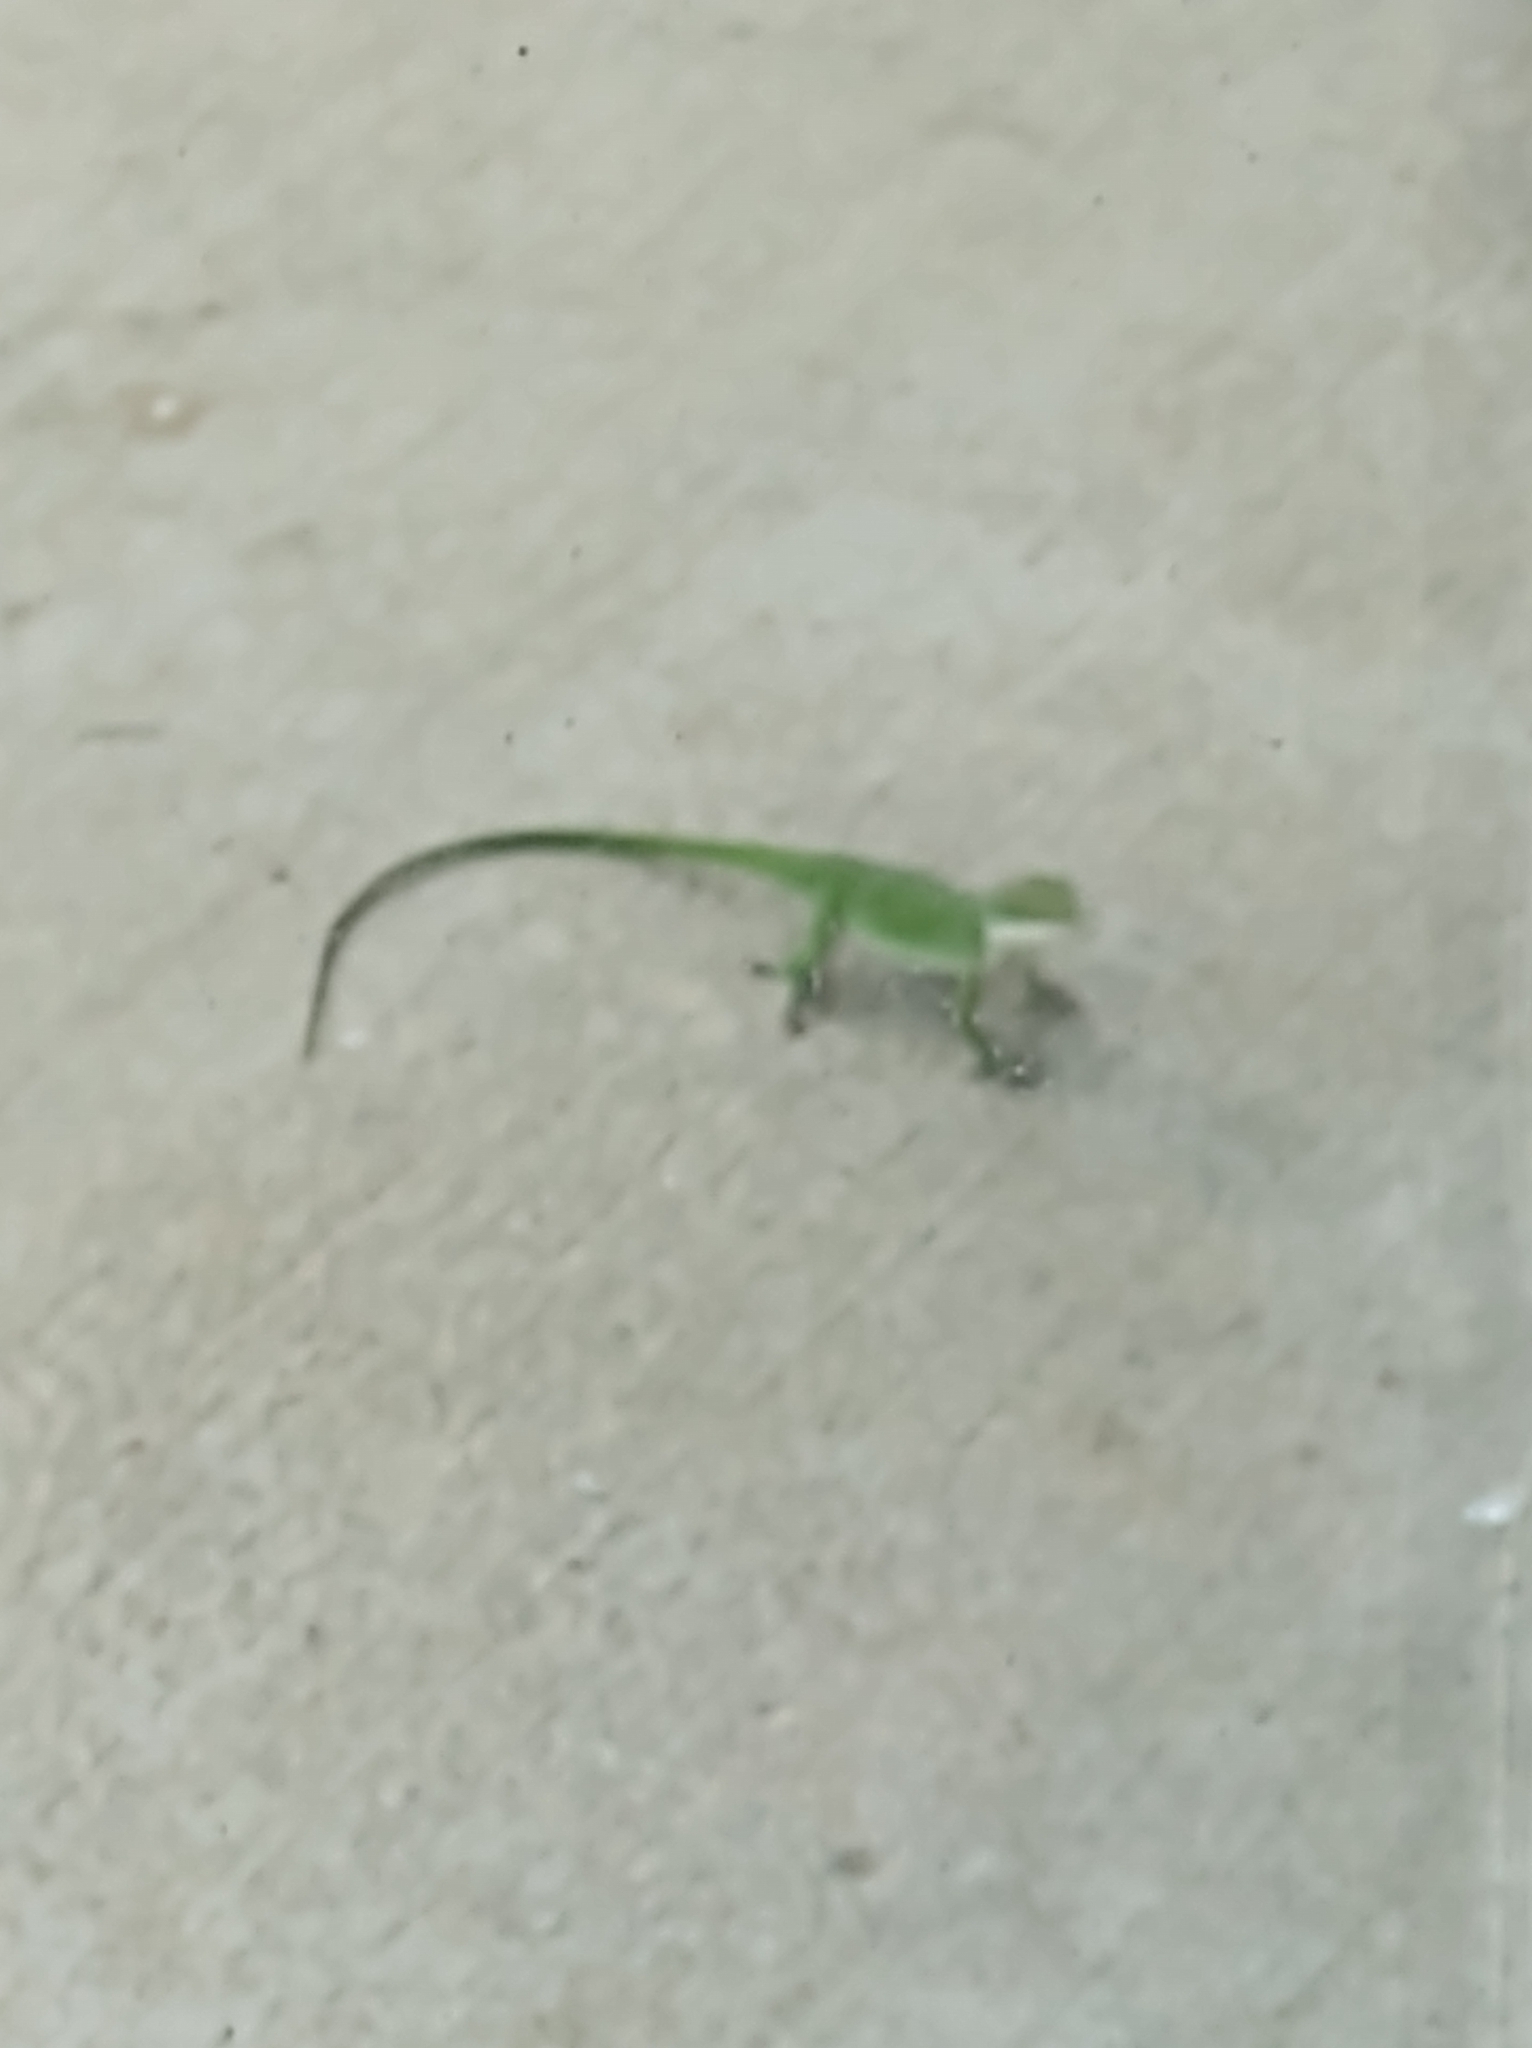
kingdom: Animalia
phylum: Chordata
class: Squamata
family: Dactyloidae
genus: Anolis
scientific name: Anolis carolinensis
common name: Green anole
